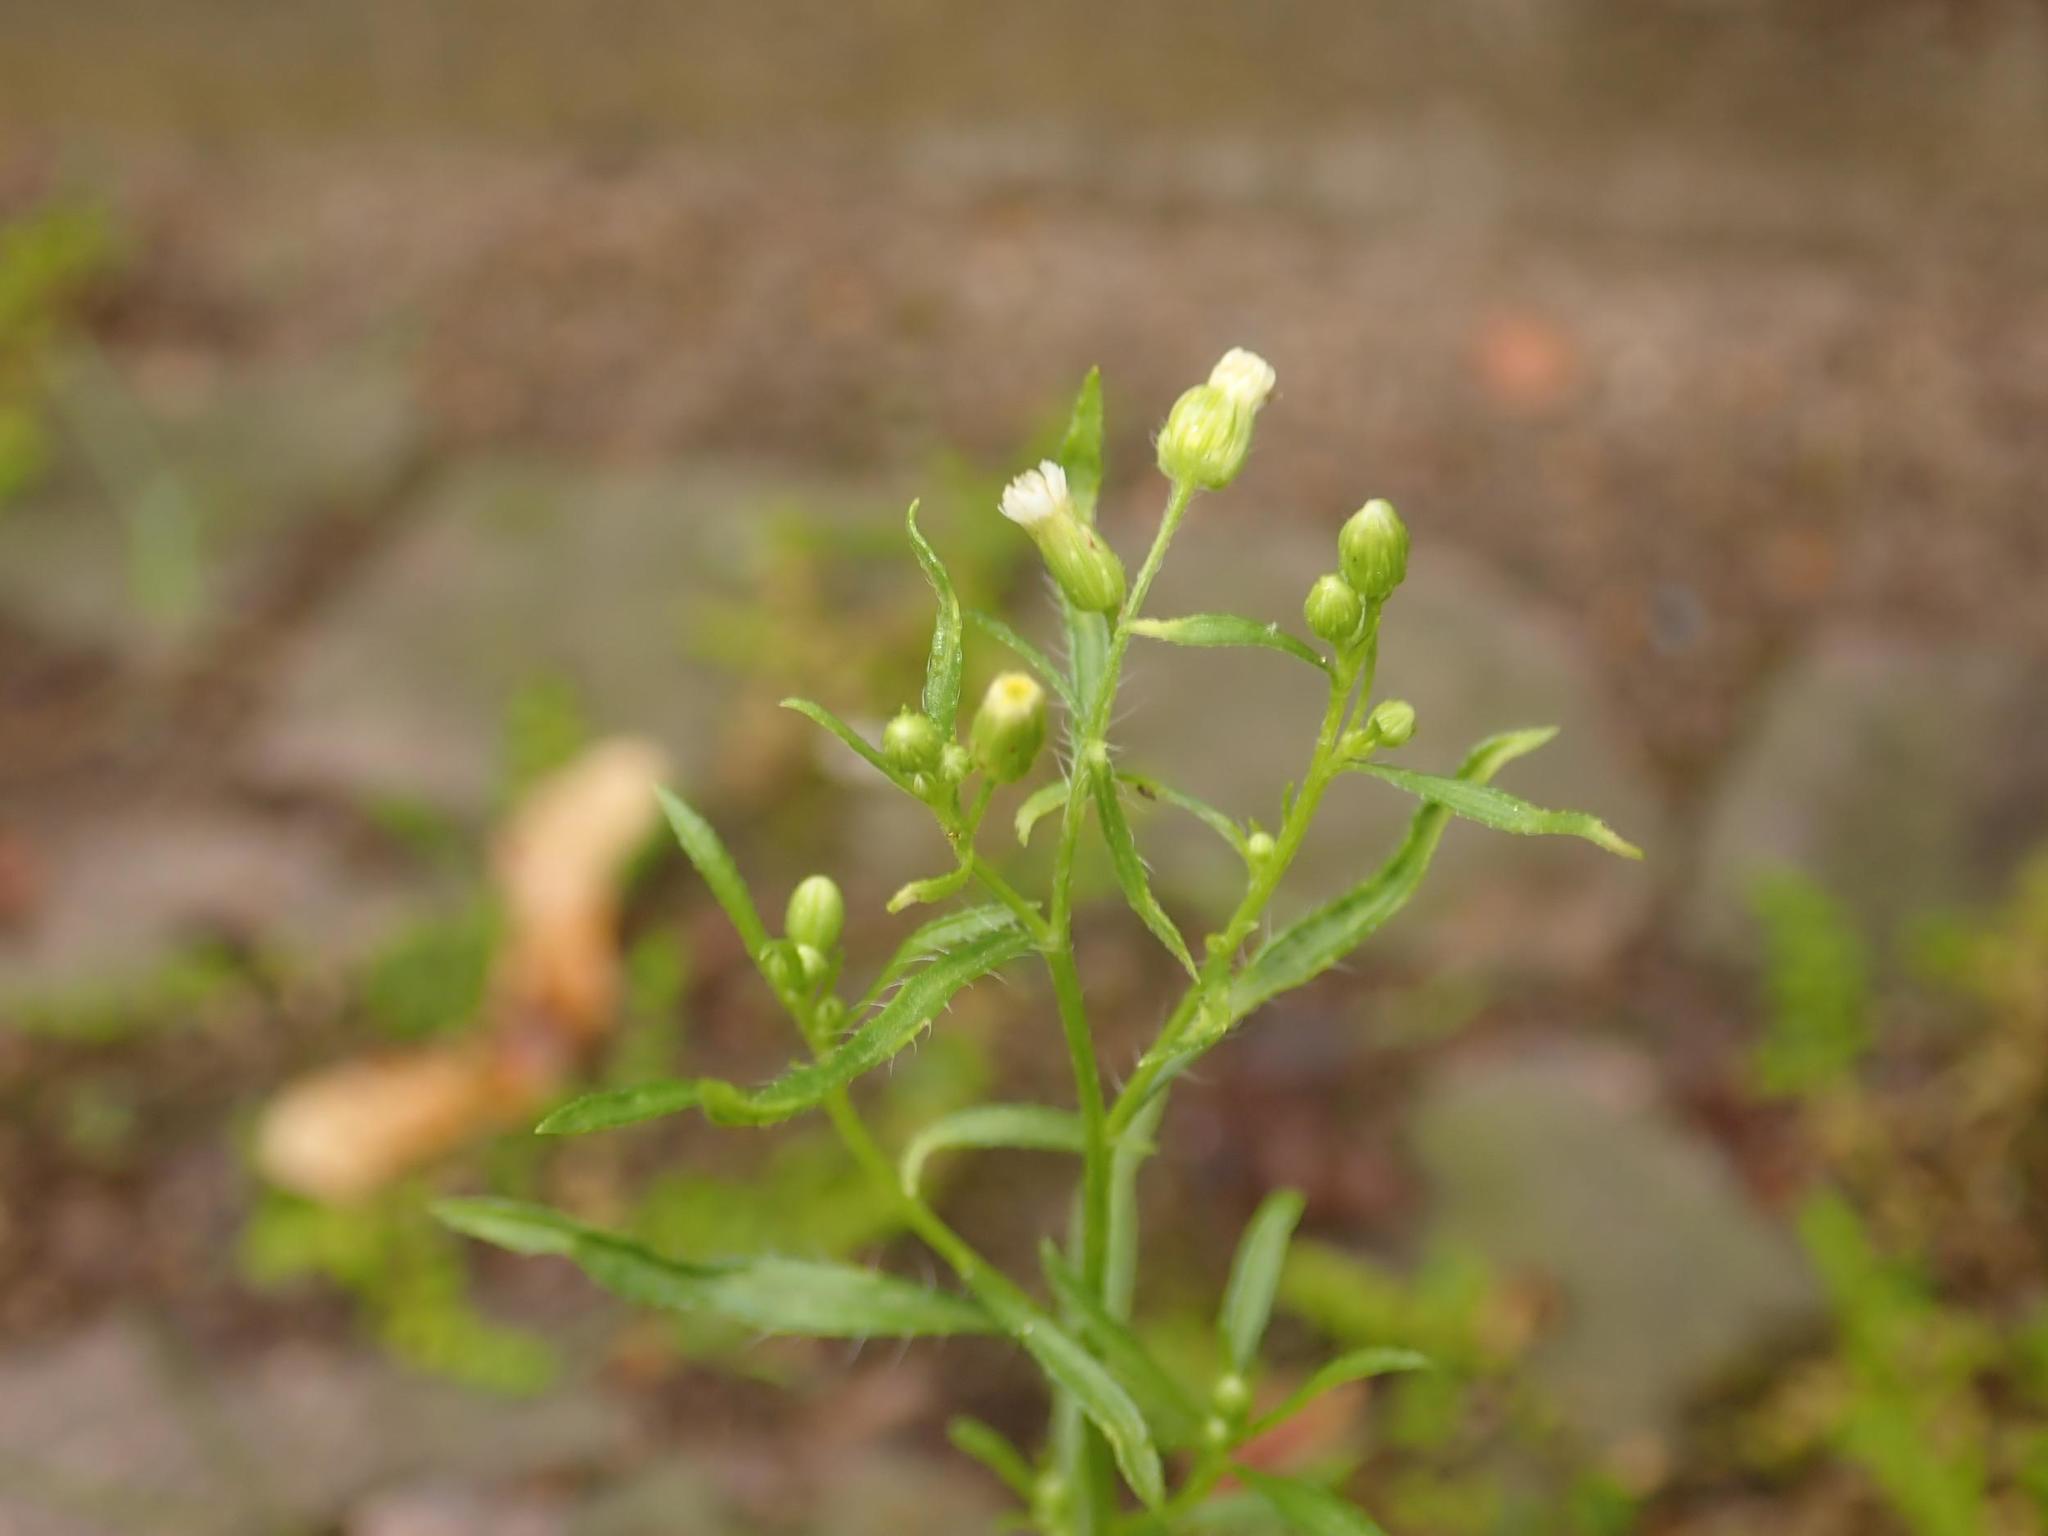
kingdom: Plantae
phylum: Tracheophyta
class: Magnoliopsida
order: Asterales
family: Asteraceae
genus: Erigeron
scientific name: Erigeron canadensis
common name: Canadian fleabane
